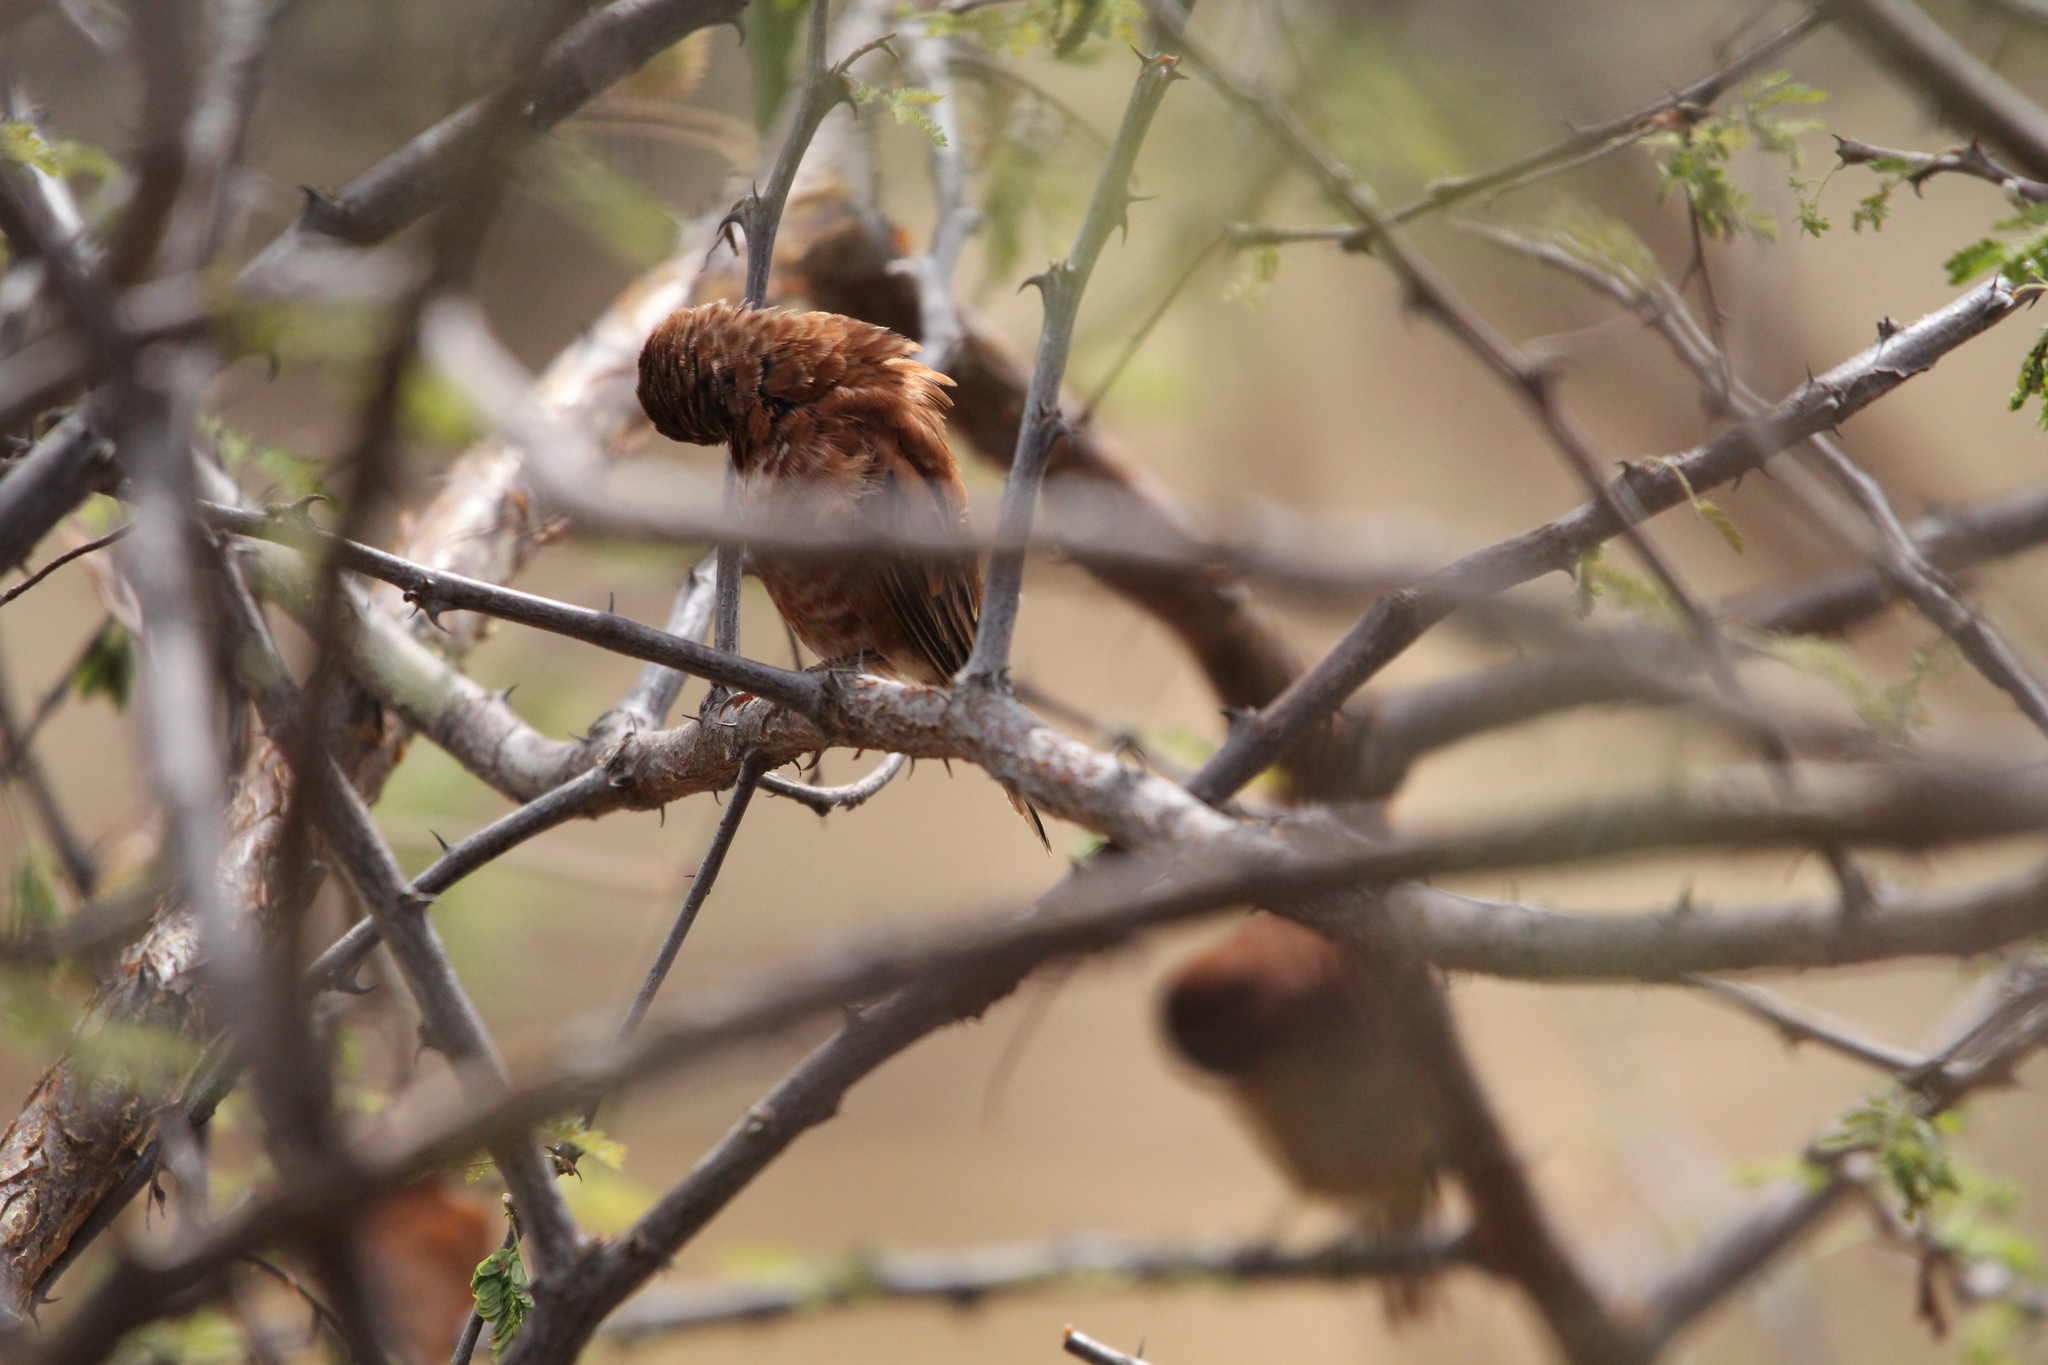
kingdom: Animalia
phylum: Chordata
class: Aves
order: Passeriformes
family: Passeridae
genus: Passer
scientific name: Passer eminibey
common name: Chestnut sparrow
